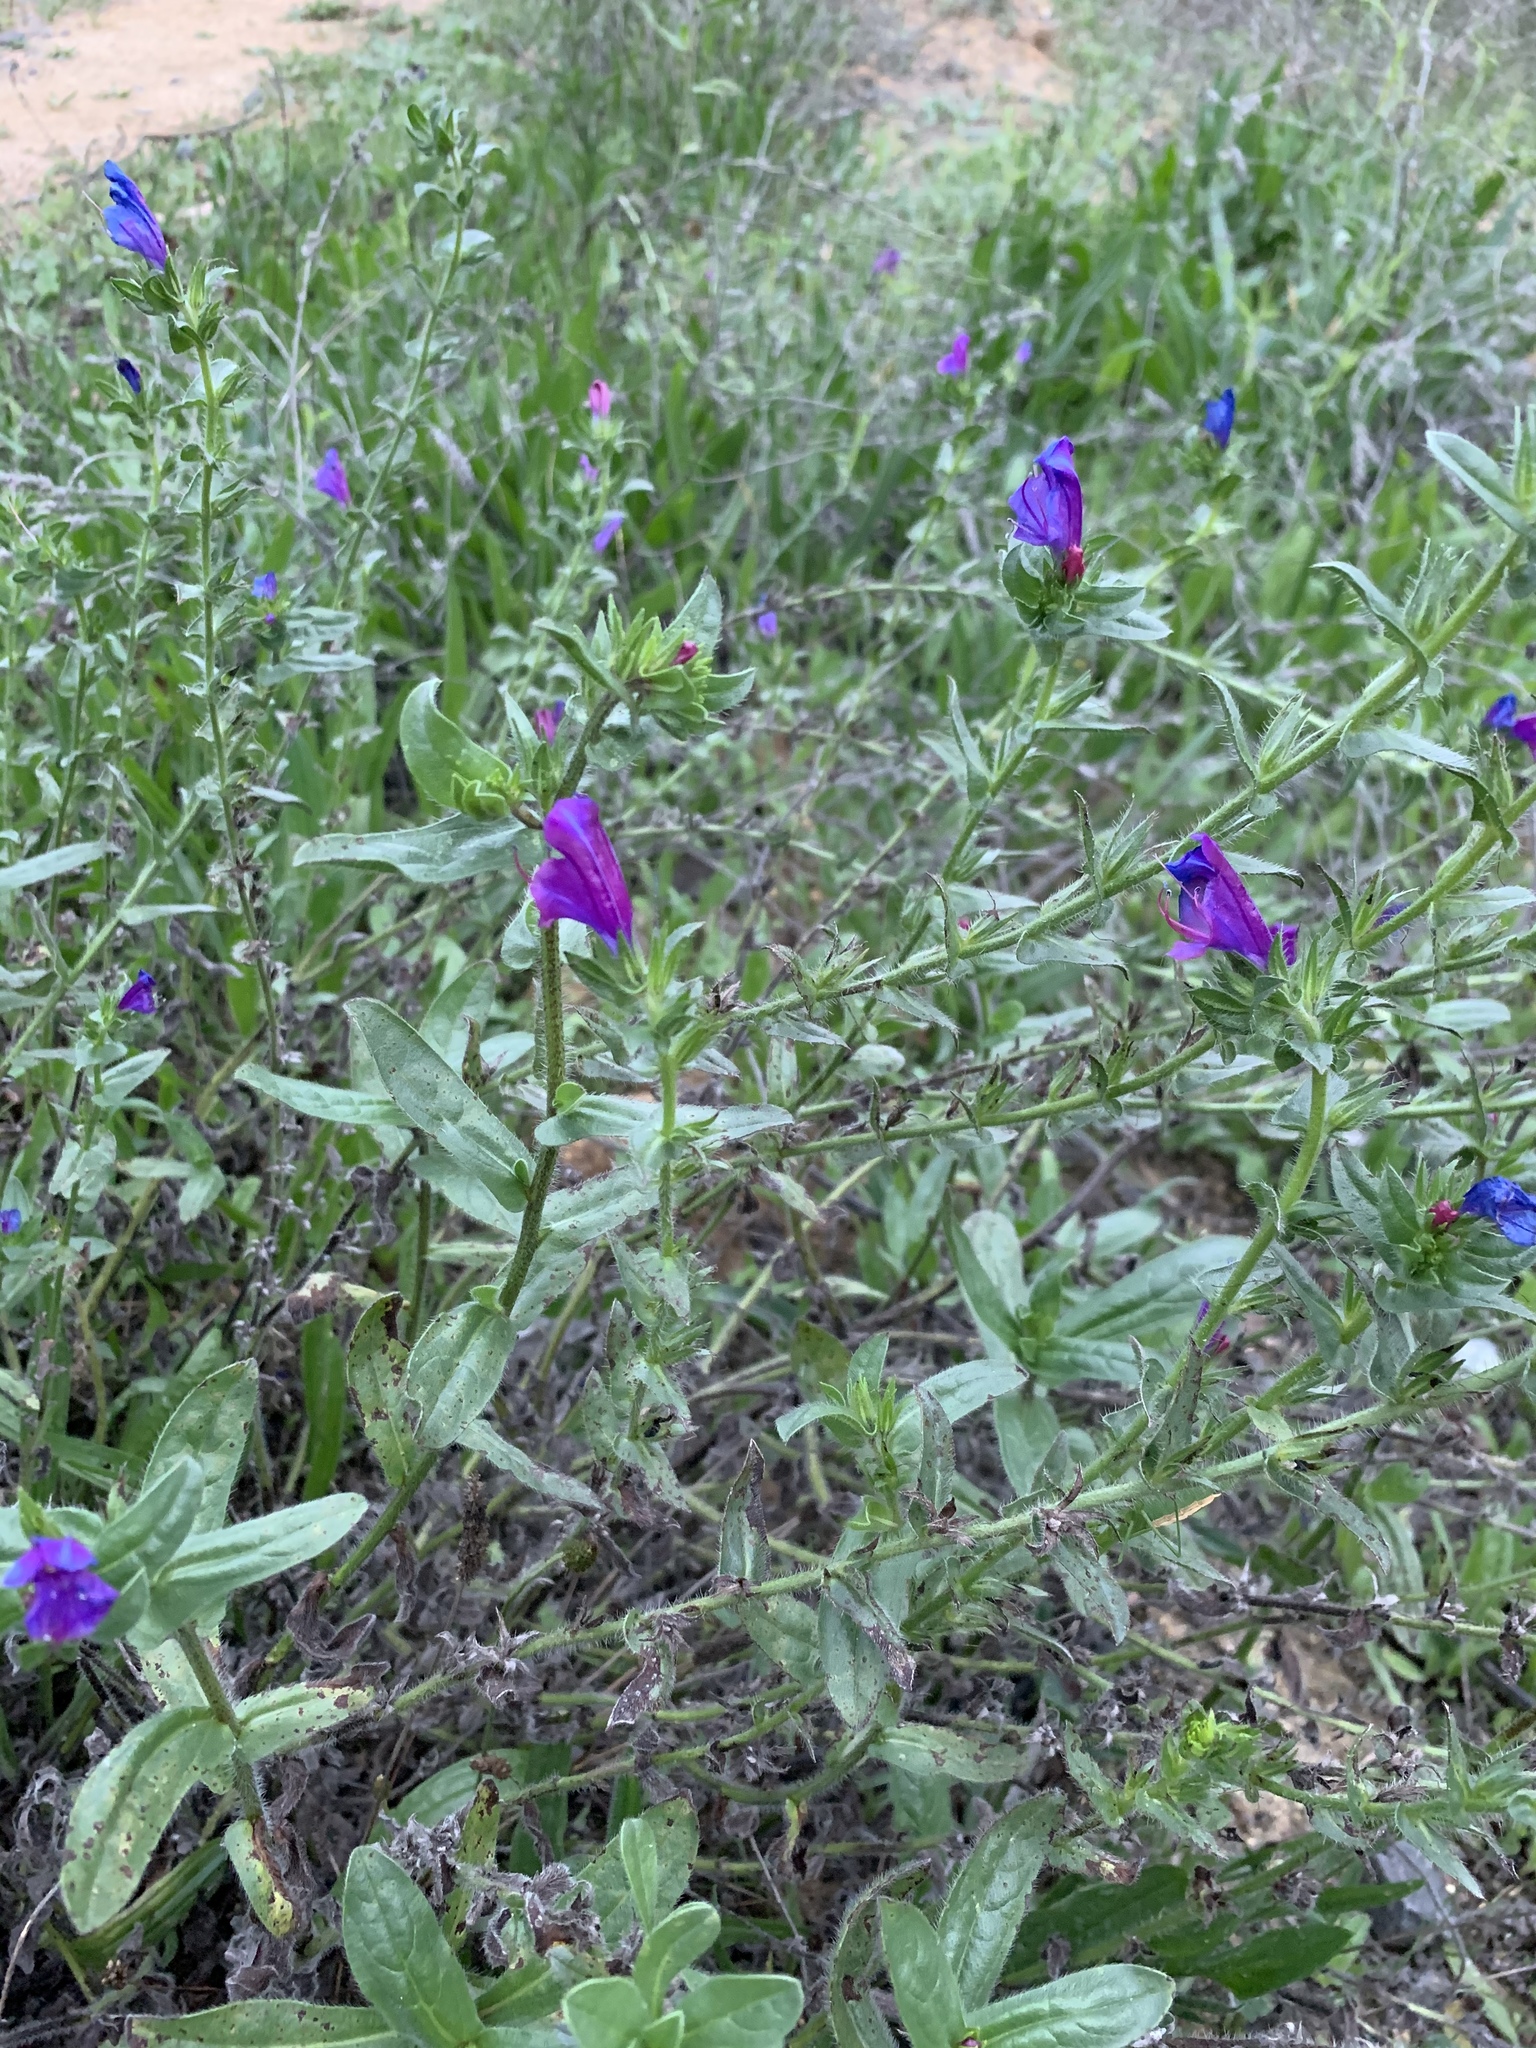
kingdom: Plantae
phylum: Tracheophyta
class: Magnoliopsida
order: Boraginales
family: Boraginaceae
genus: Echium
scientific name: Echium plantagineum
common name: Purple viper's-bugloss
